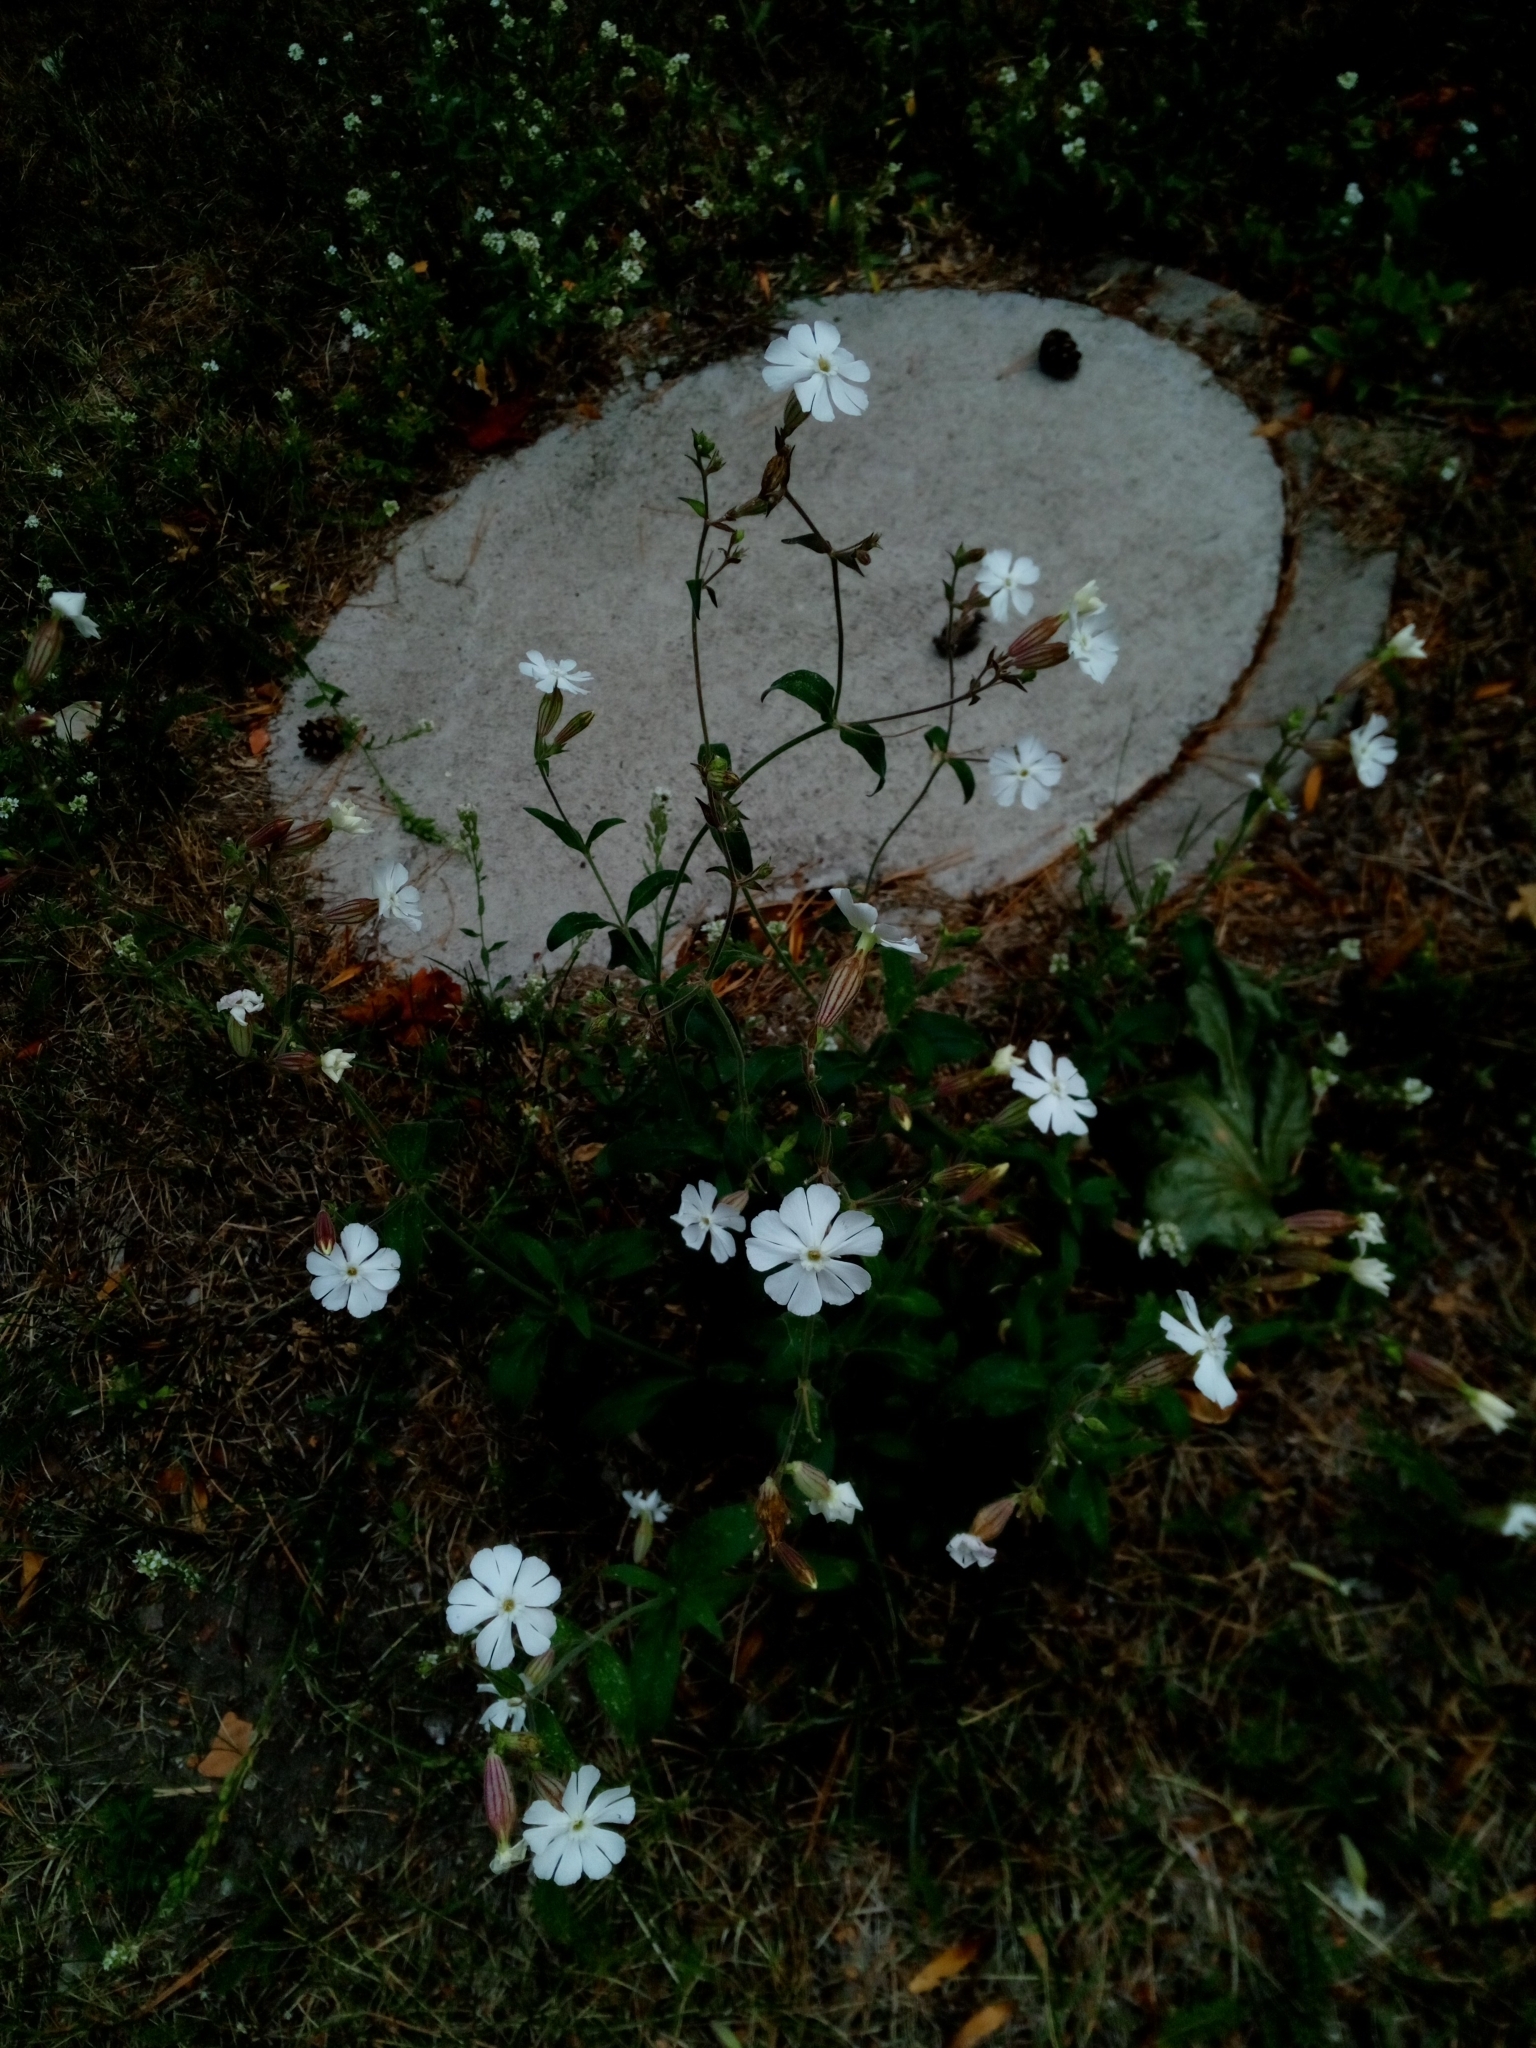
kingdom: Plantae
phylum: Tracheophyta
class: Magnoliopsida
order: Caryophyllales
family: Caryophyllaceae
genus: Silene
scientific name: Silene latifolia
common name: White campion
